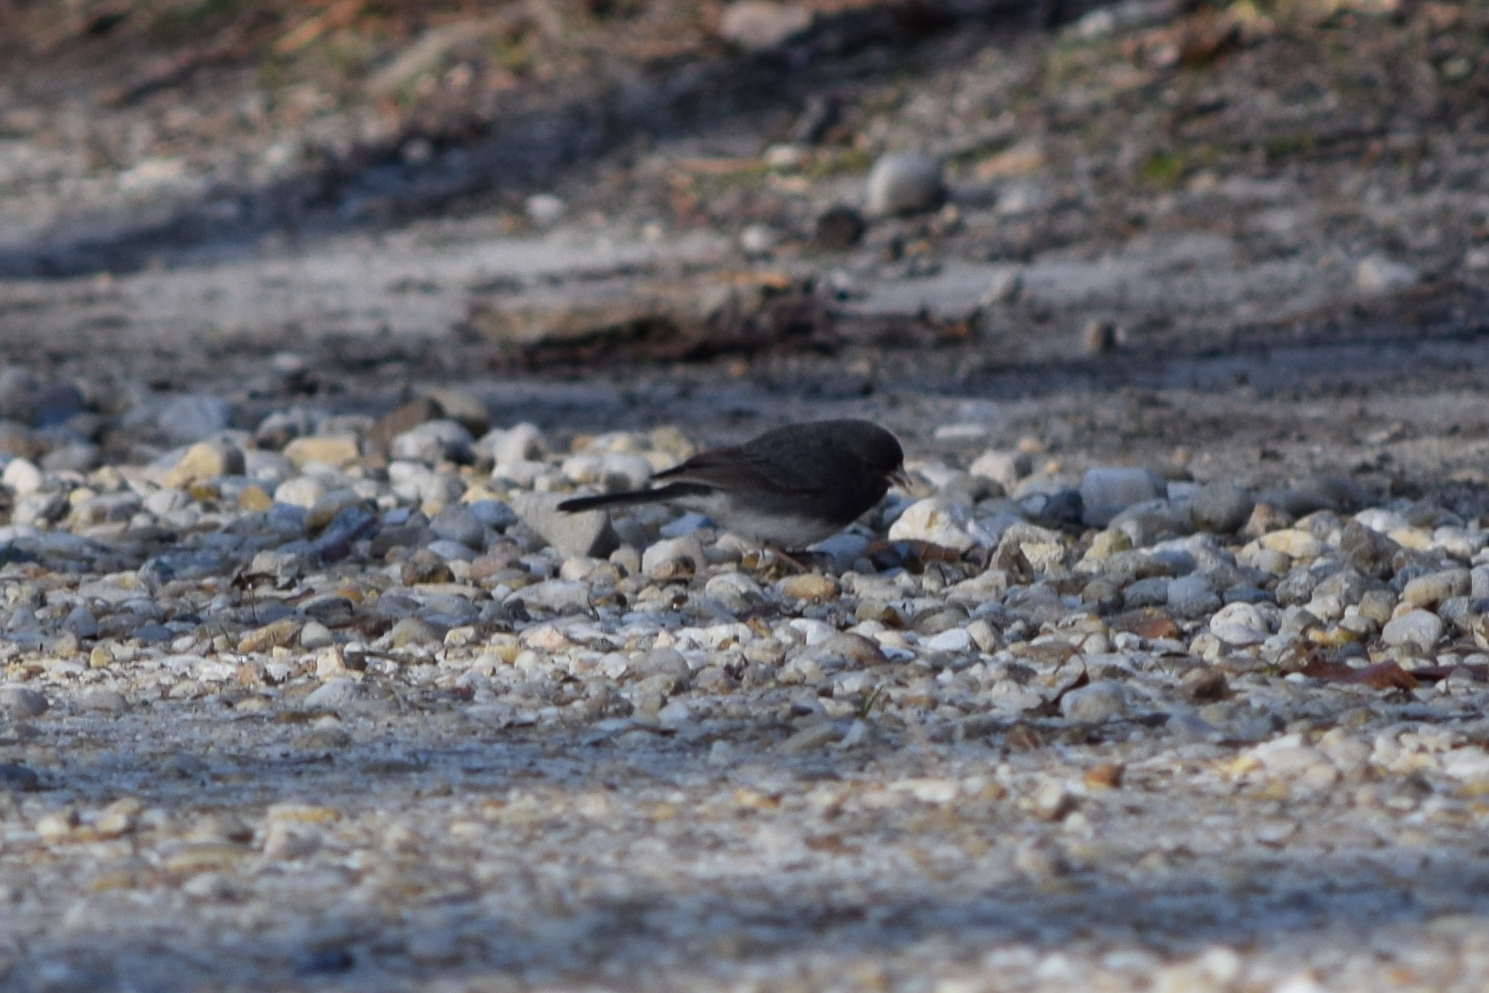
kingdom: Animalia
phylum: Chordata
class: Aves
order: Passeriformes
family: Passerellidae
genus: Junco
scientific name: Junco hyemalis
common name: Dark-eyed junco
